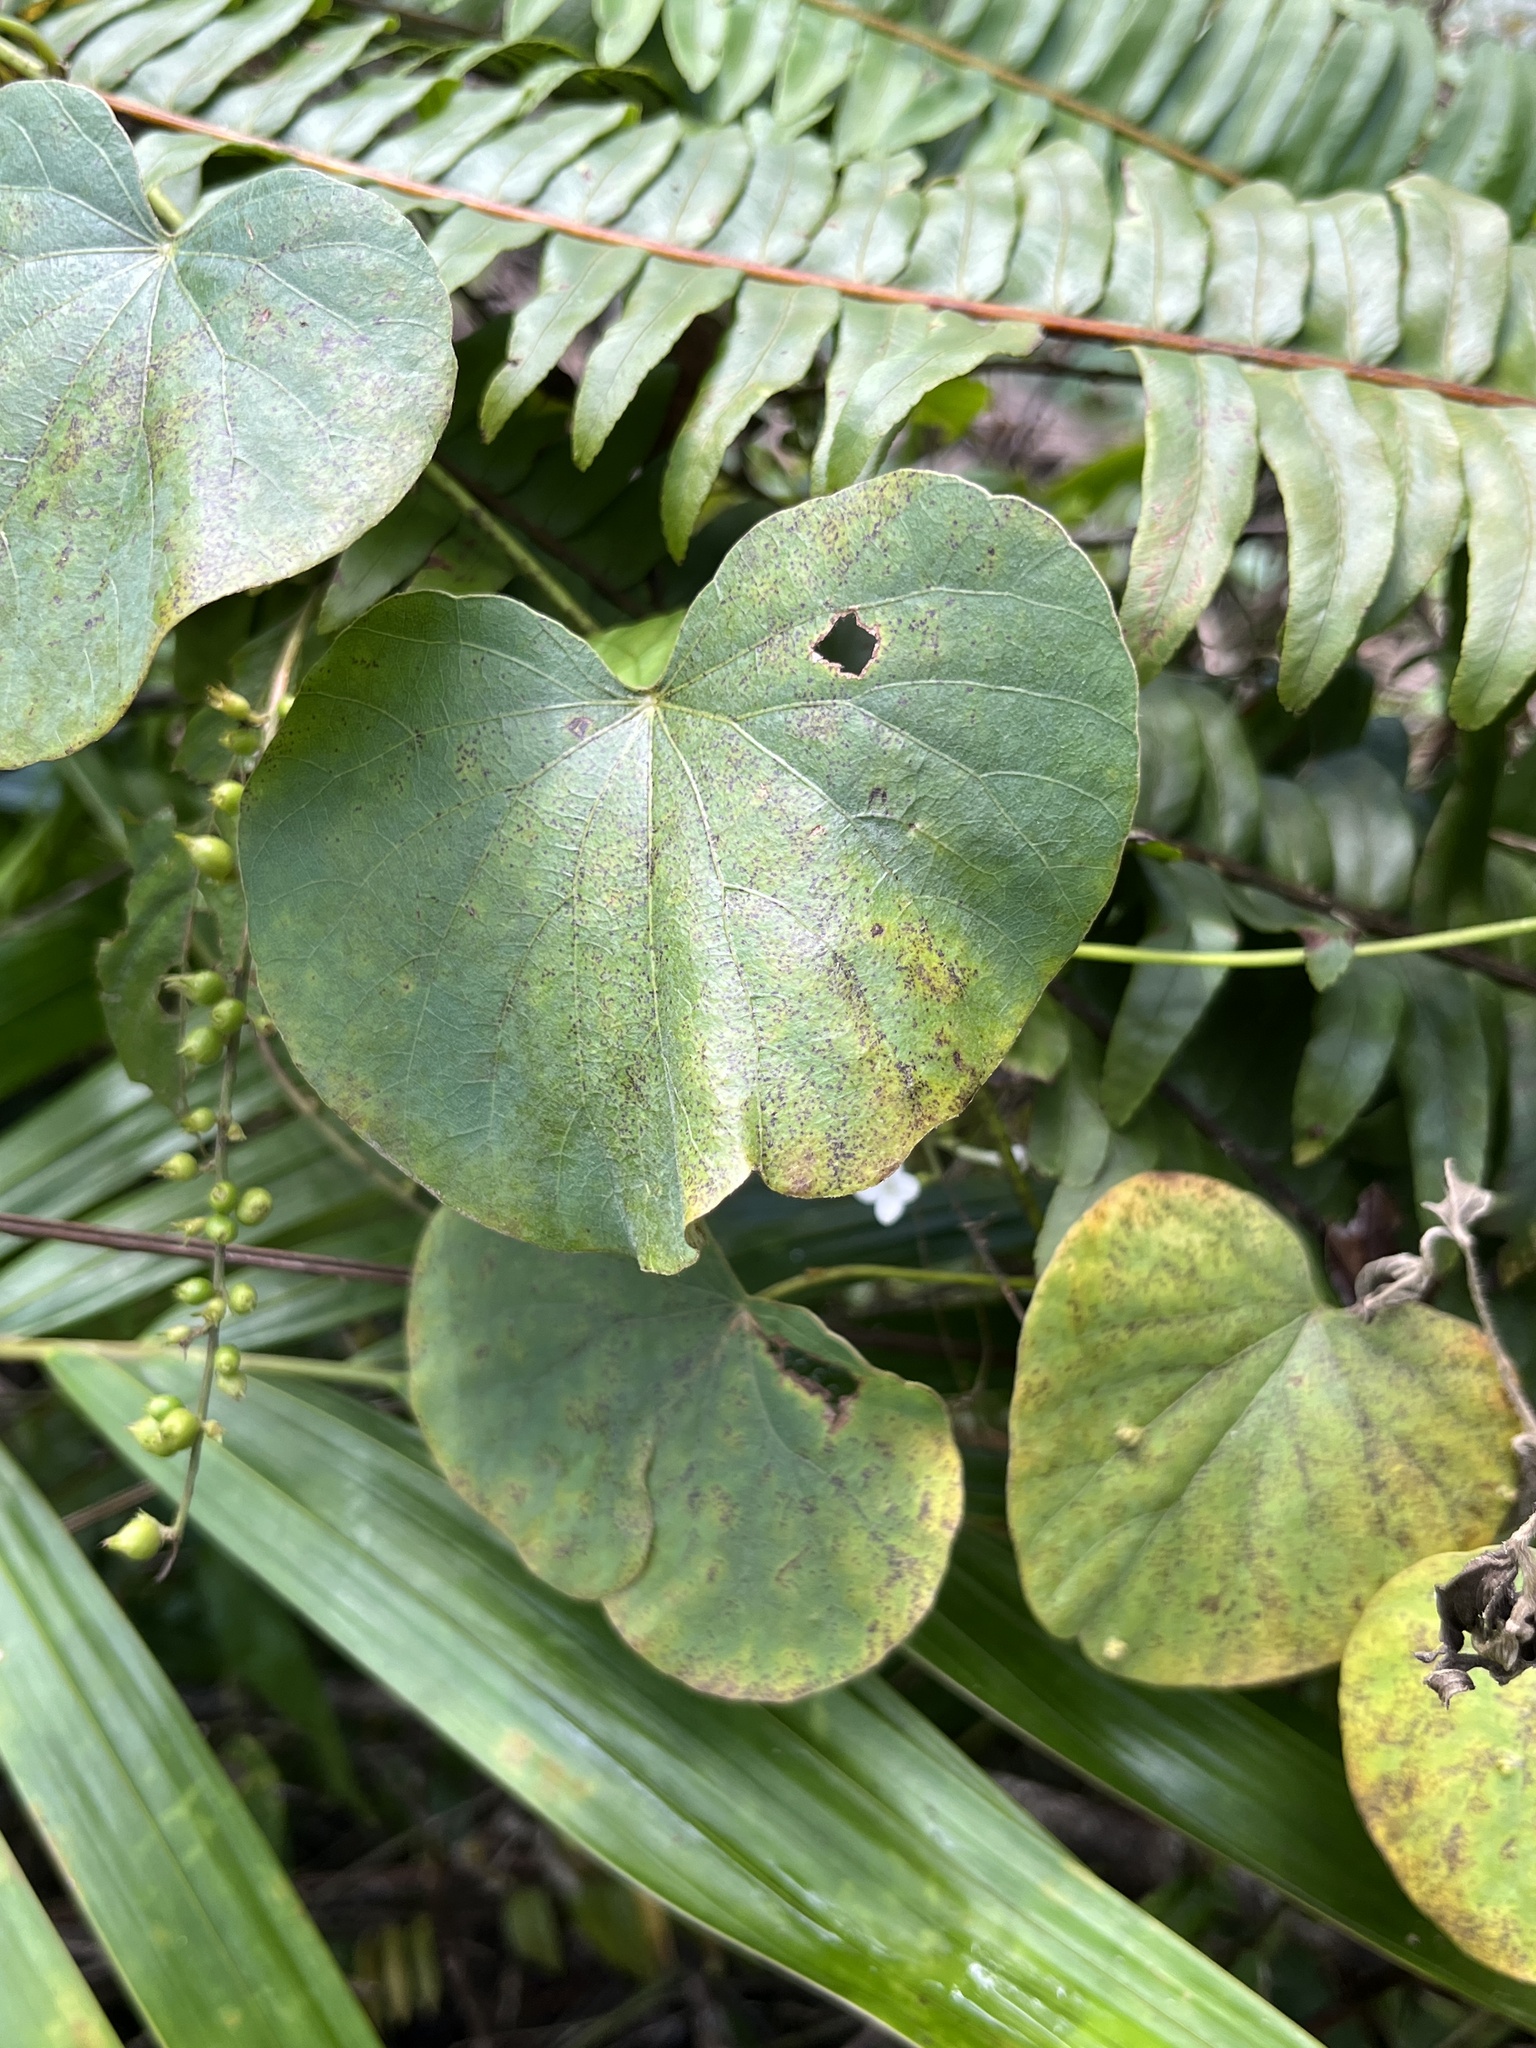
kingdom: Plantae
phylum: Tracheophyta
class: Polypodiopsida
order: Polypodiales
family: Nephrolepidaceae
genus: Nephrolepis
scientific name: Nephrolepis rivularis
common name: Streamside swordfern
